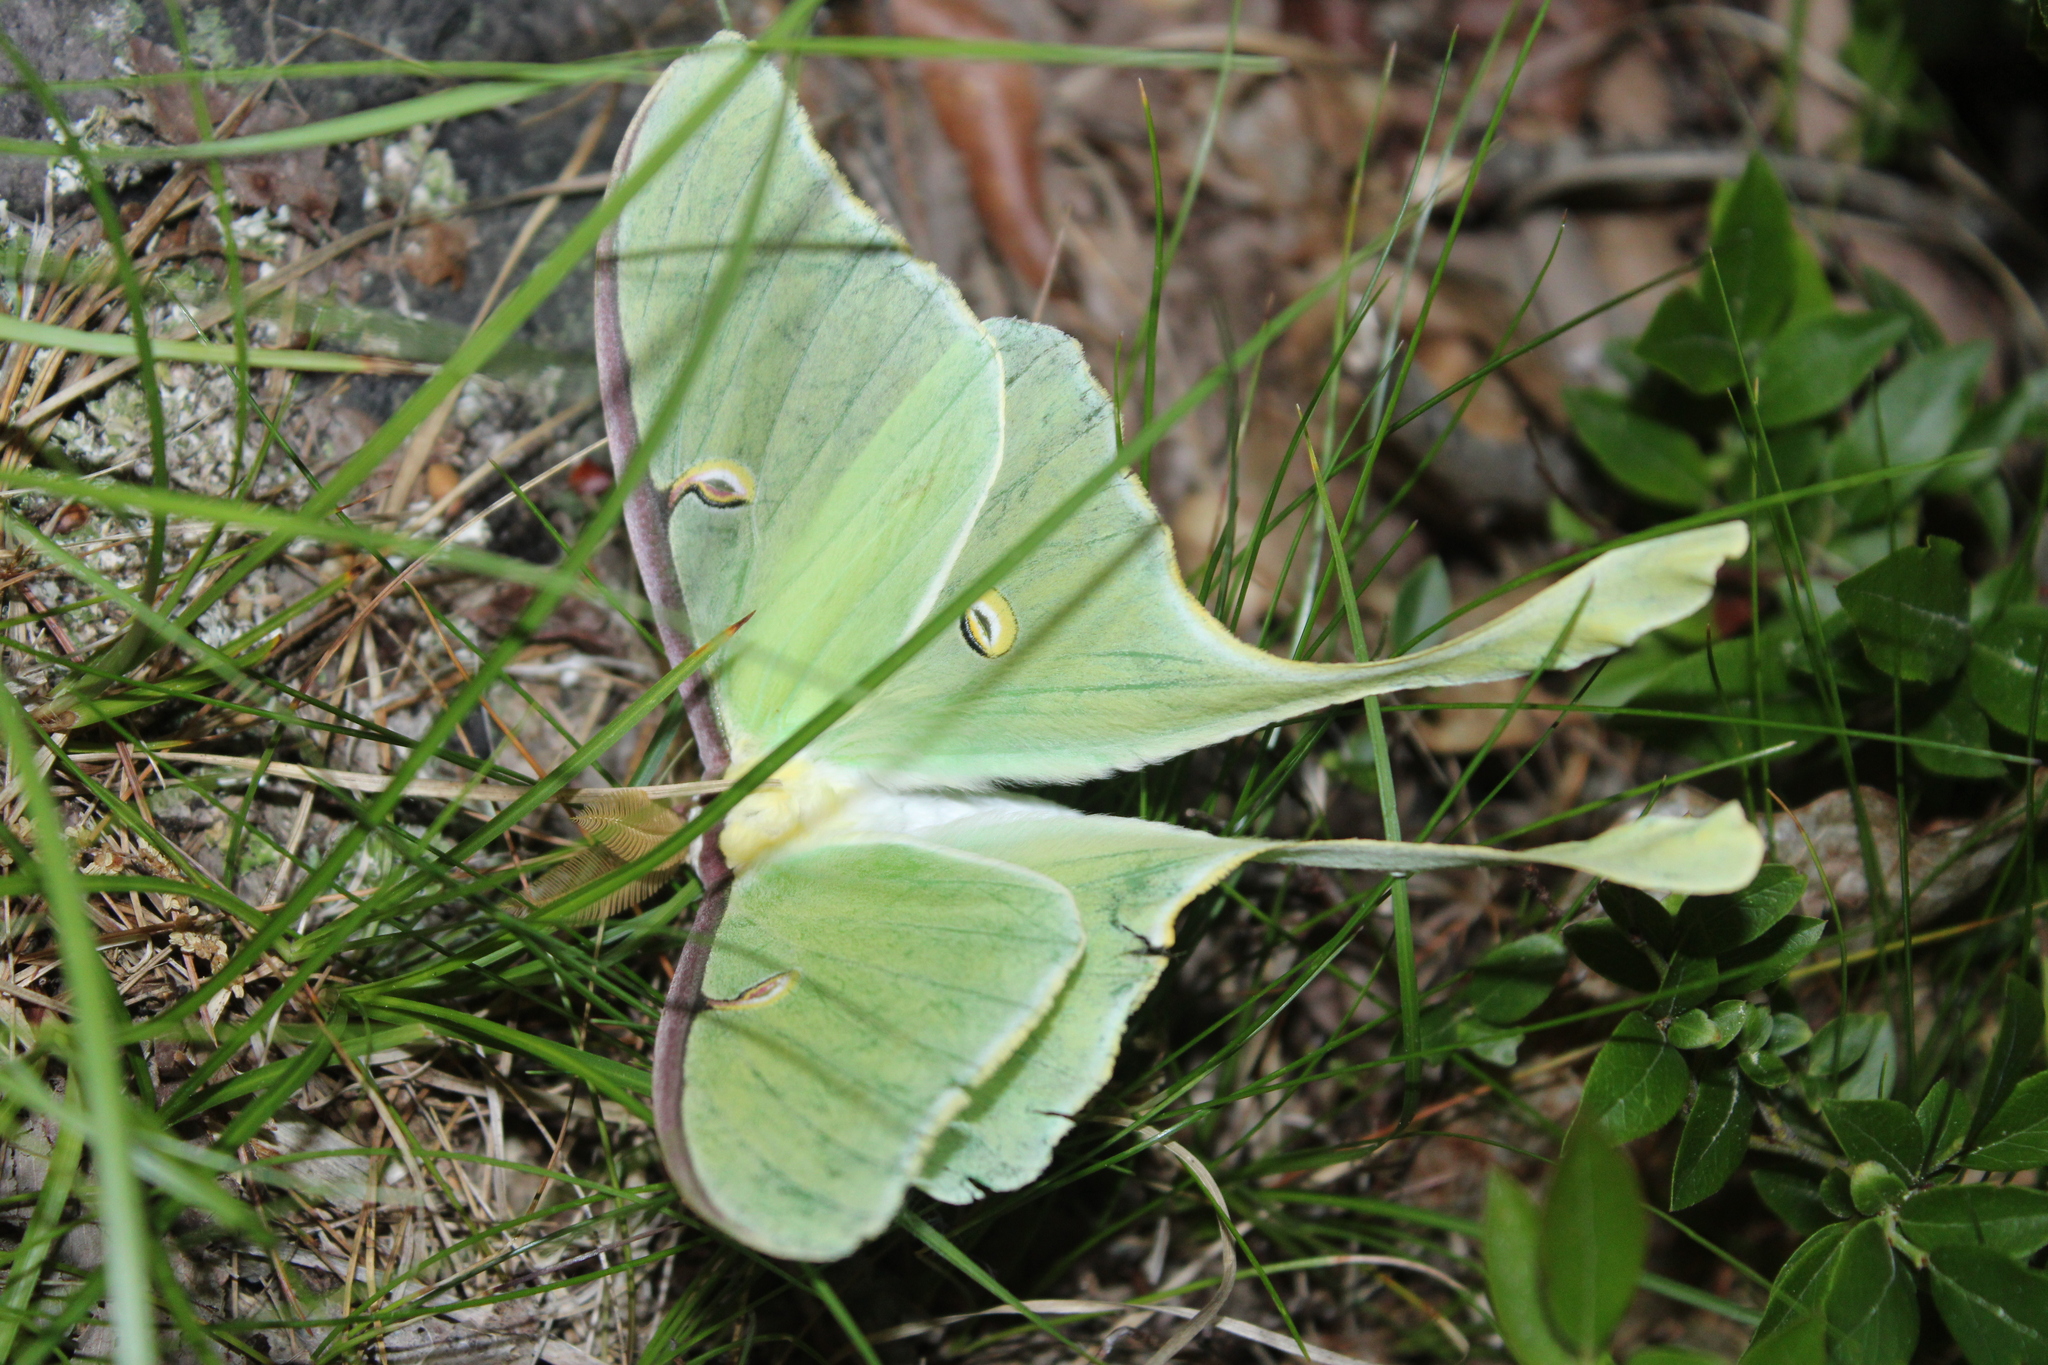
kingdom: Animalia
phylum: Arthropoda
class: Insecta
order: Lepidoptera
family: Saturniidae
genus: Actias
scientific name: Actias luna
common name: Luna moth
